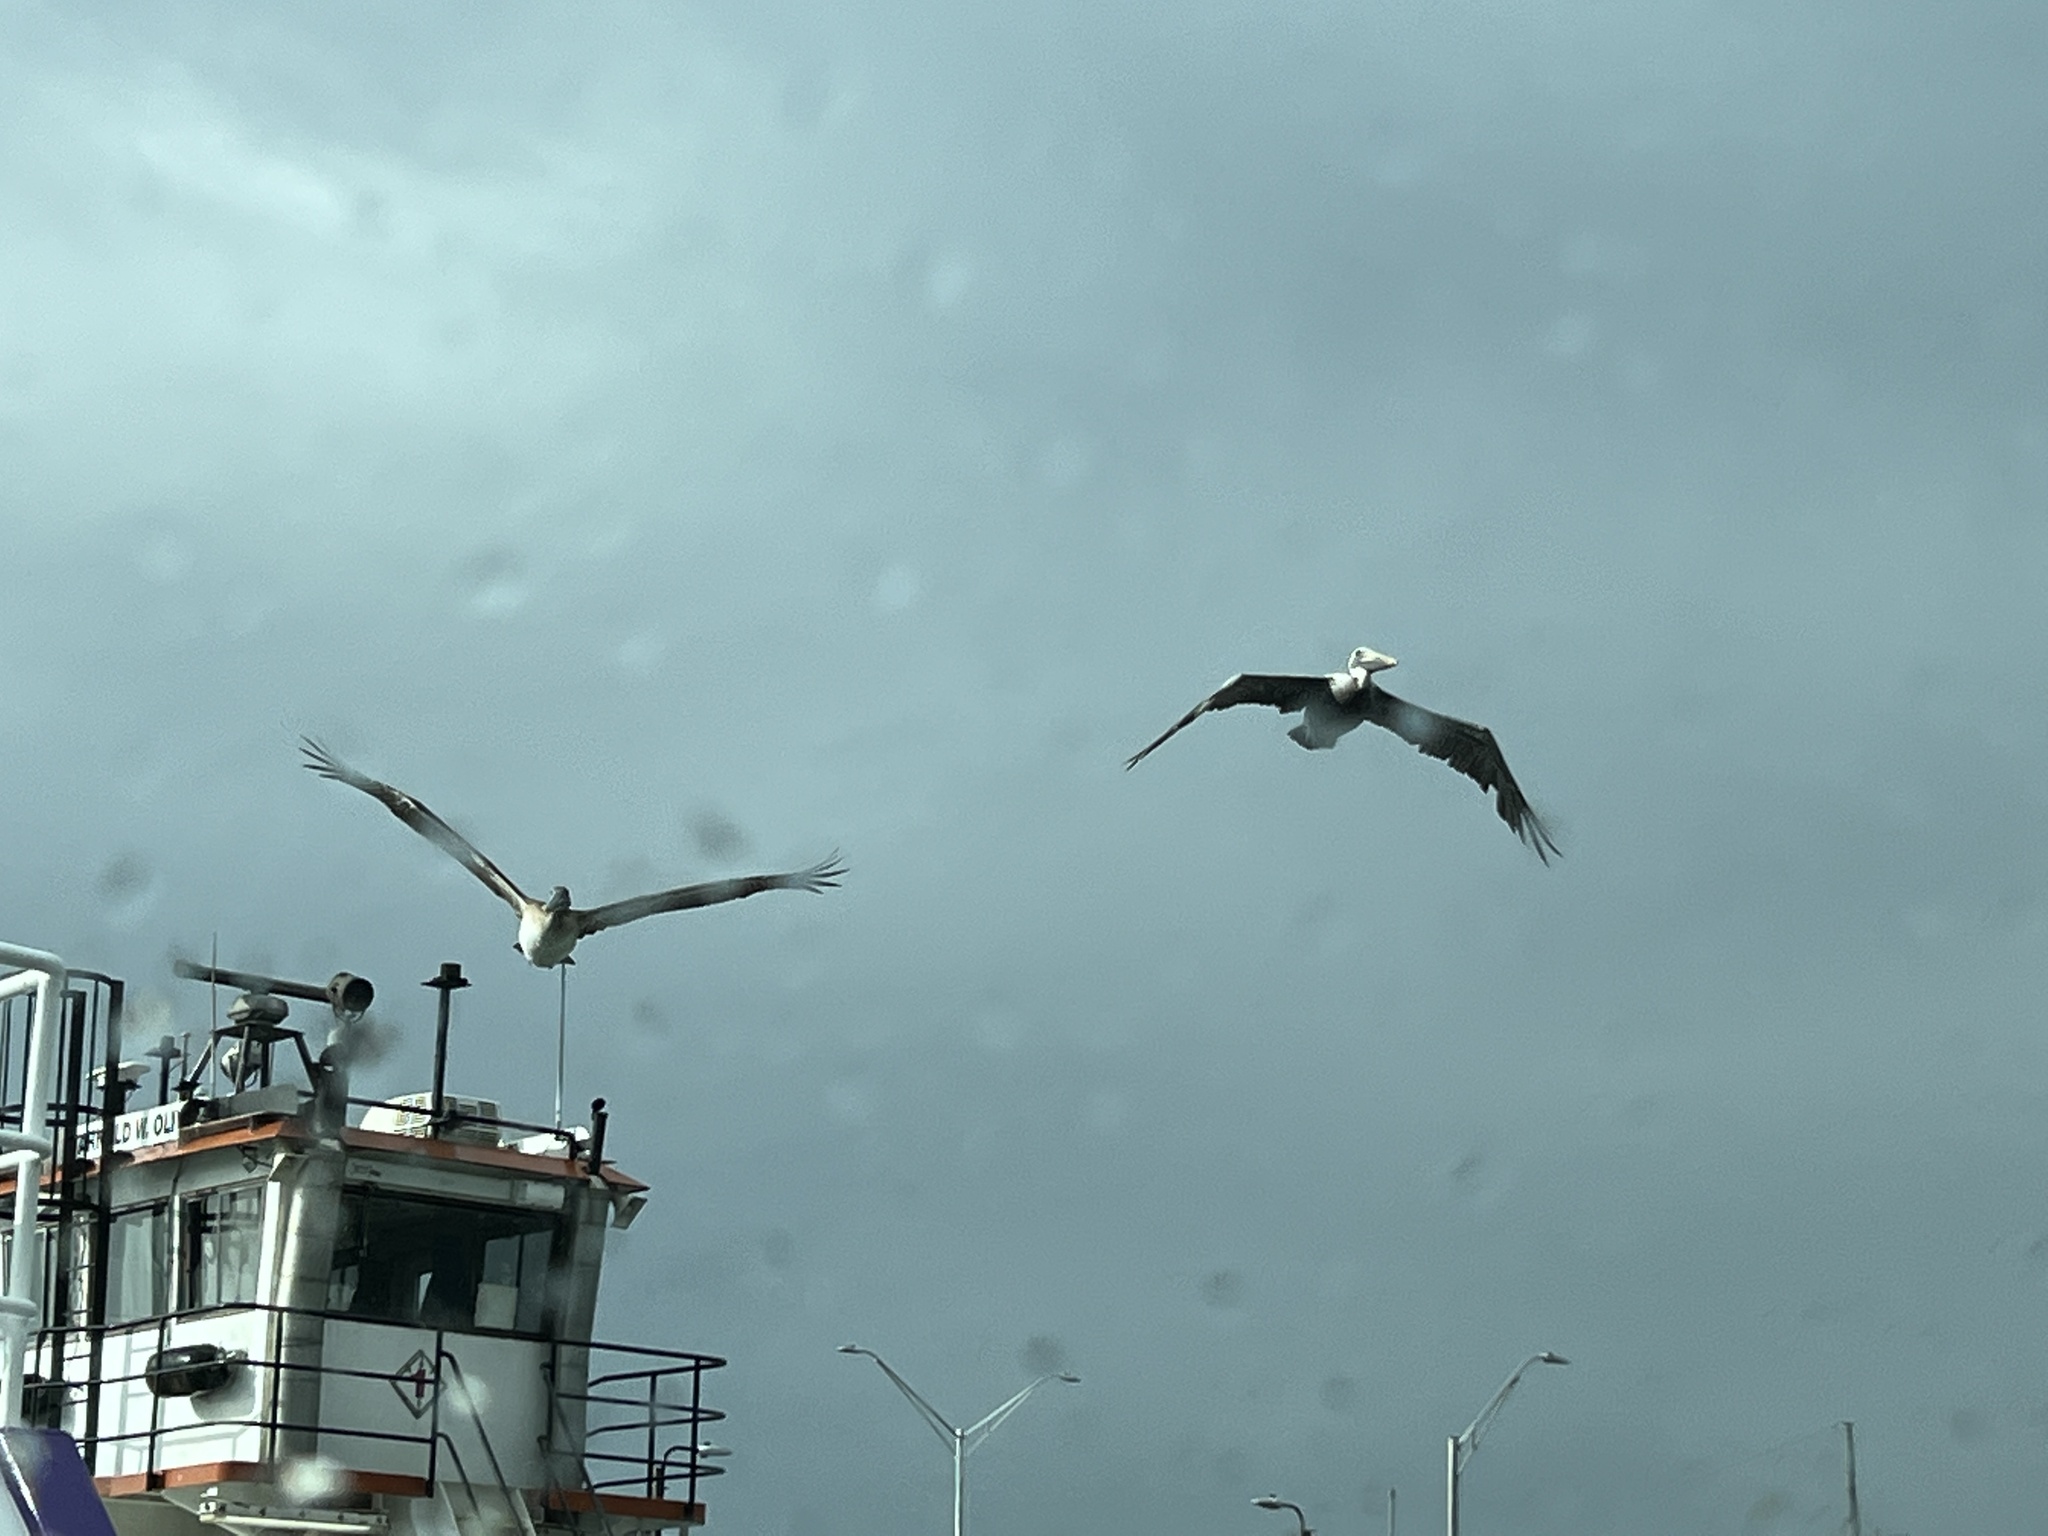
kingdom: Animalia
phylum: Chordata
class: Aves
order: Pelecaniformes
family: Pelecanidae
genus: Pelecanus
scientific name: Pelecanus occidentalis
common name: Brown pelican
